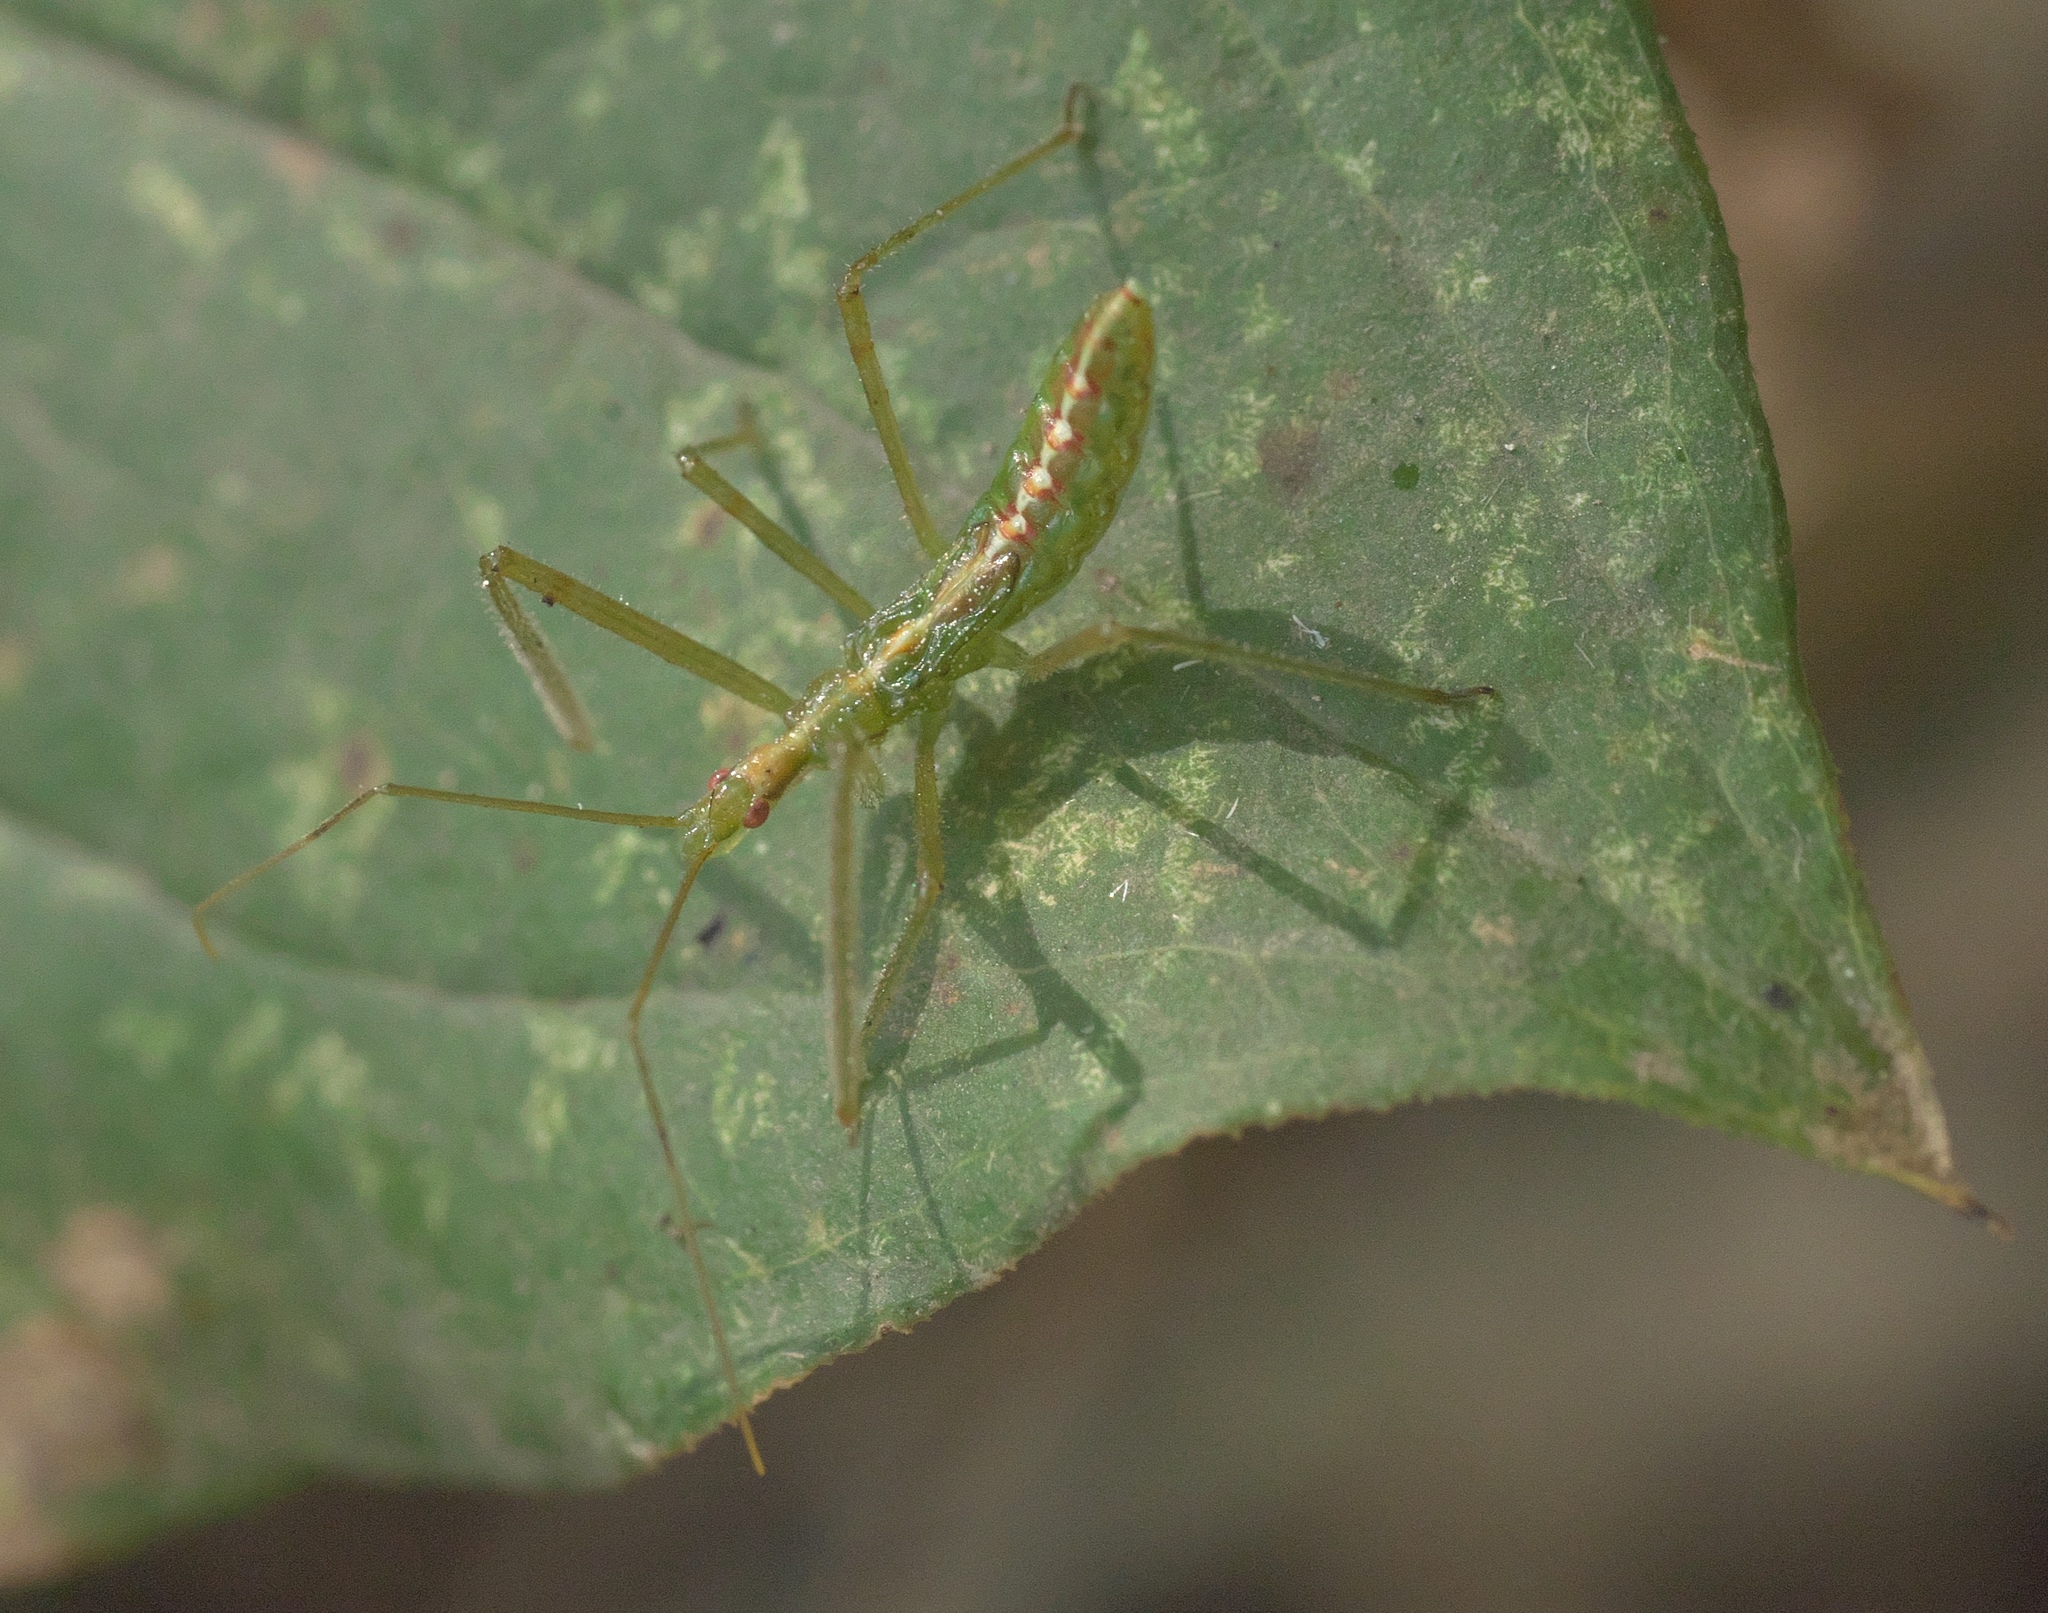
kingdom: Animalia
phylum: Arthropoda
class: Insecta
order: Hemiptera
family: Reduviidae
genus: Zelus
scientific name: Zelus luridus
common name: Pale green assassin bug
